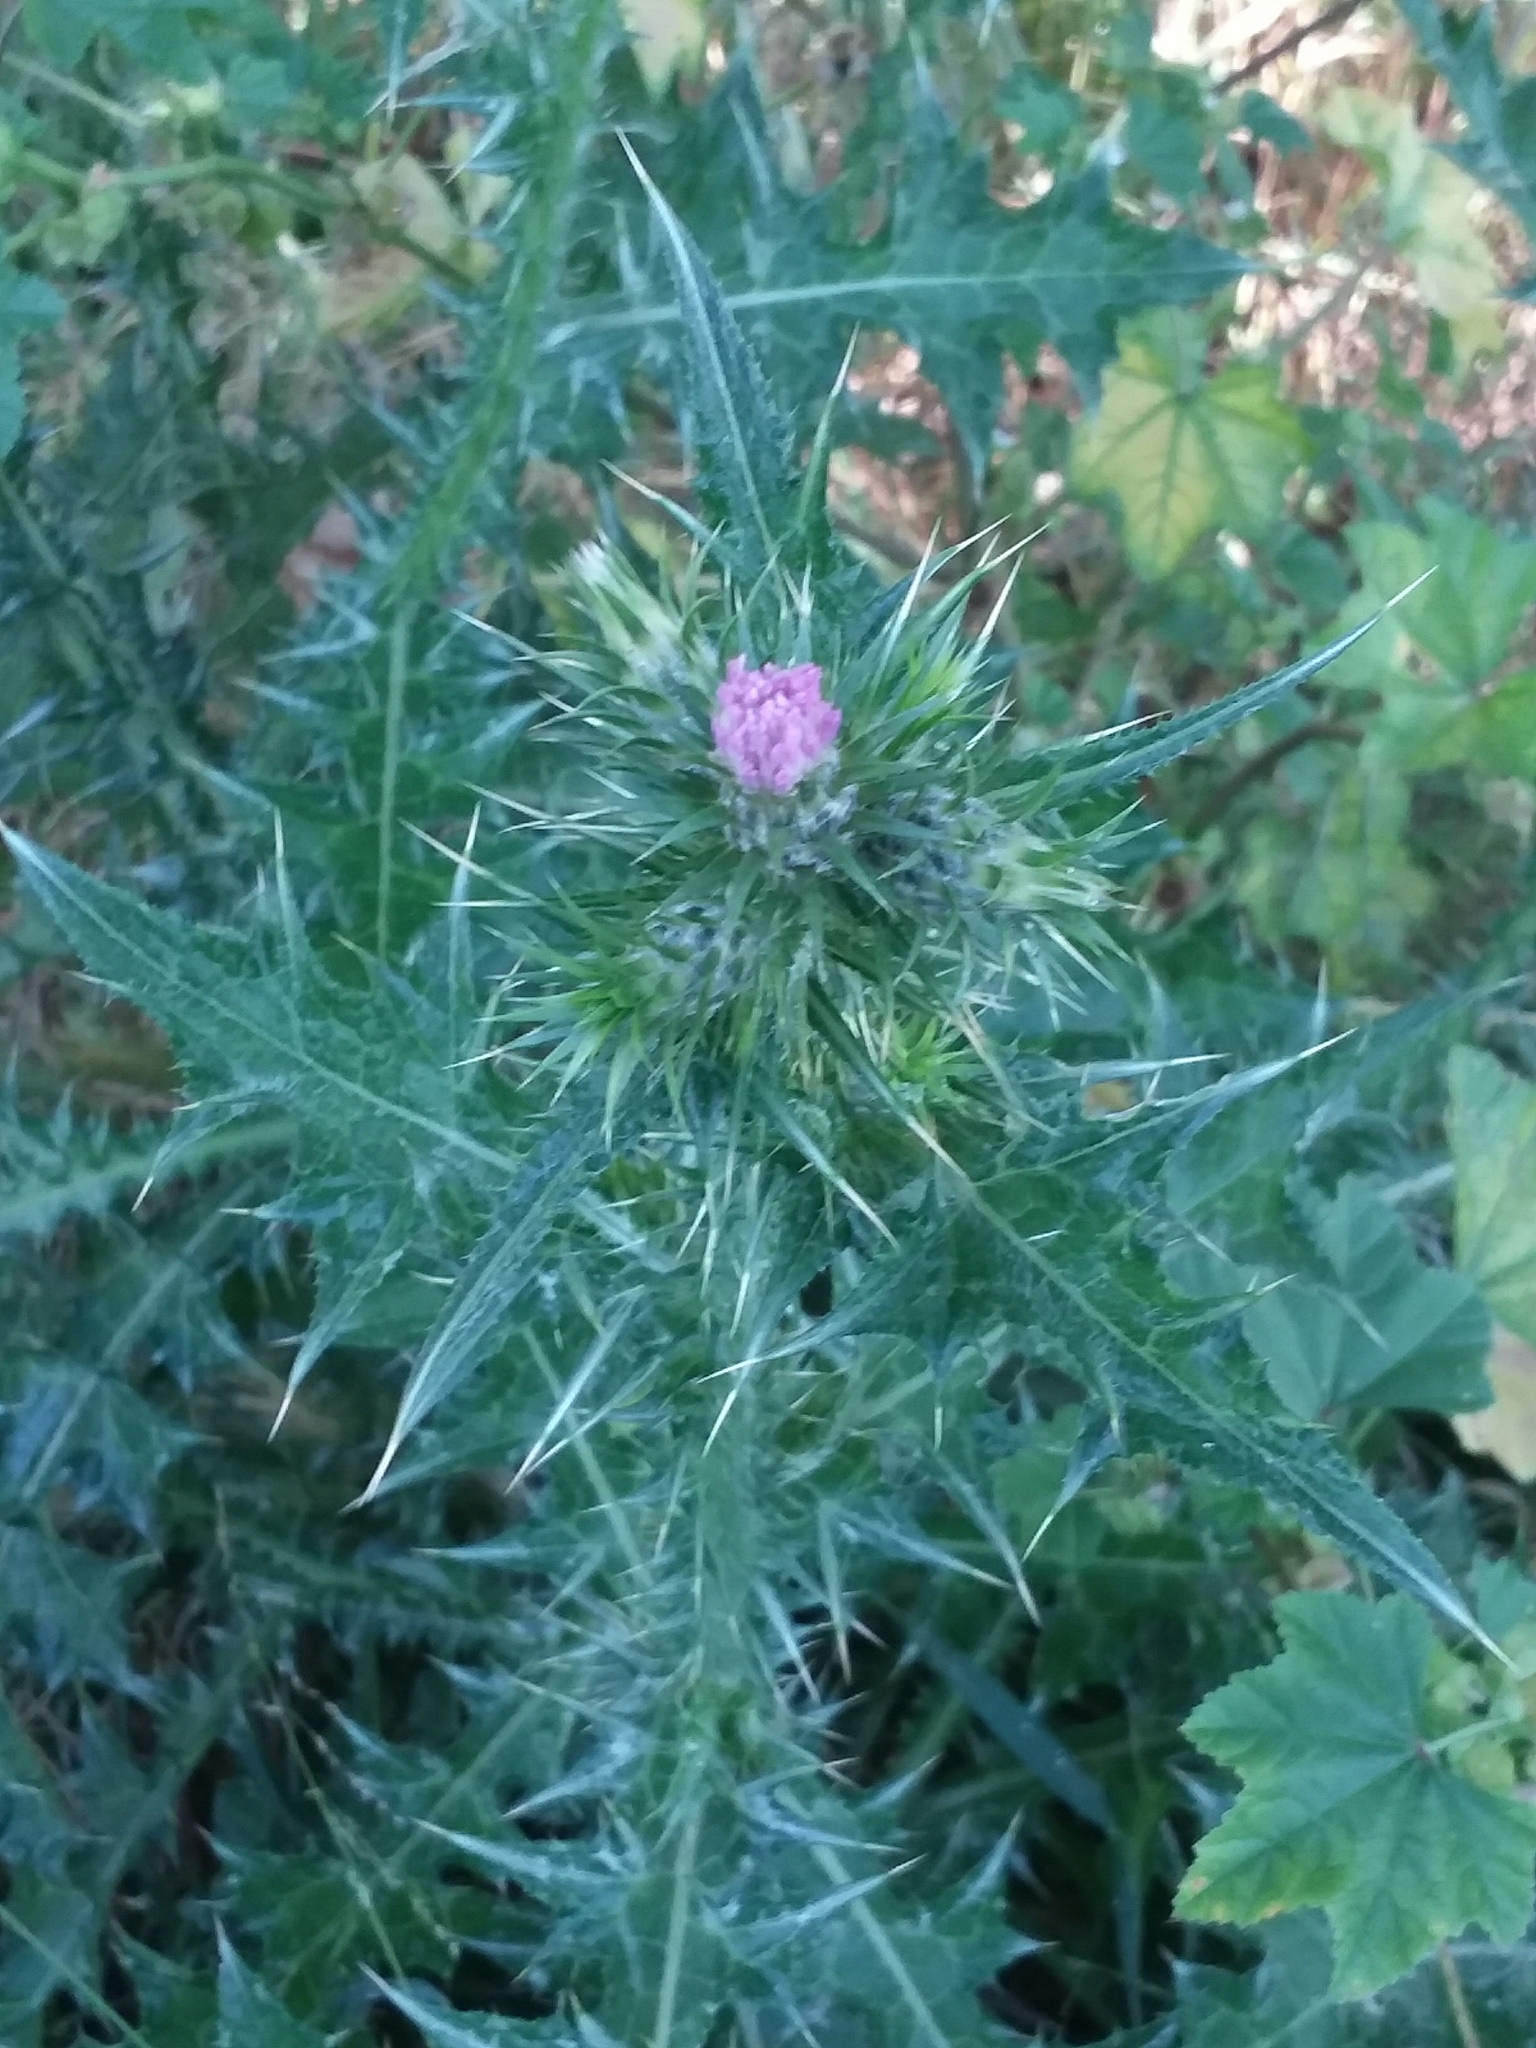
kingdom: Plantae
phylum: Tracheophyta
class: Magnoliopsida
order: Asterales
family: Asteraceae
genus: Carduus
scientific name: Carduus pycnocephalus
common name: Plymouth thistle
